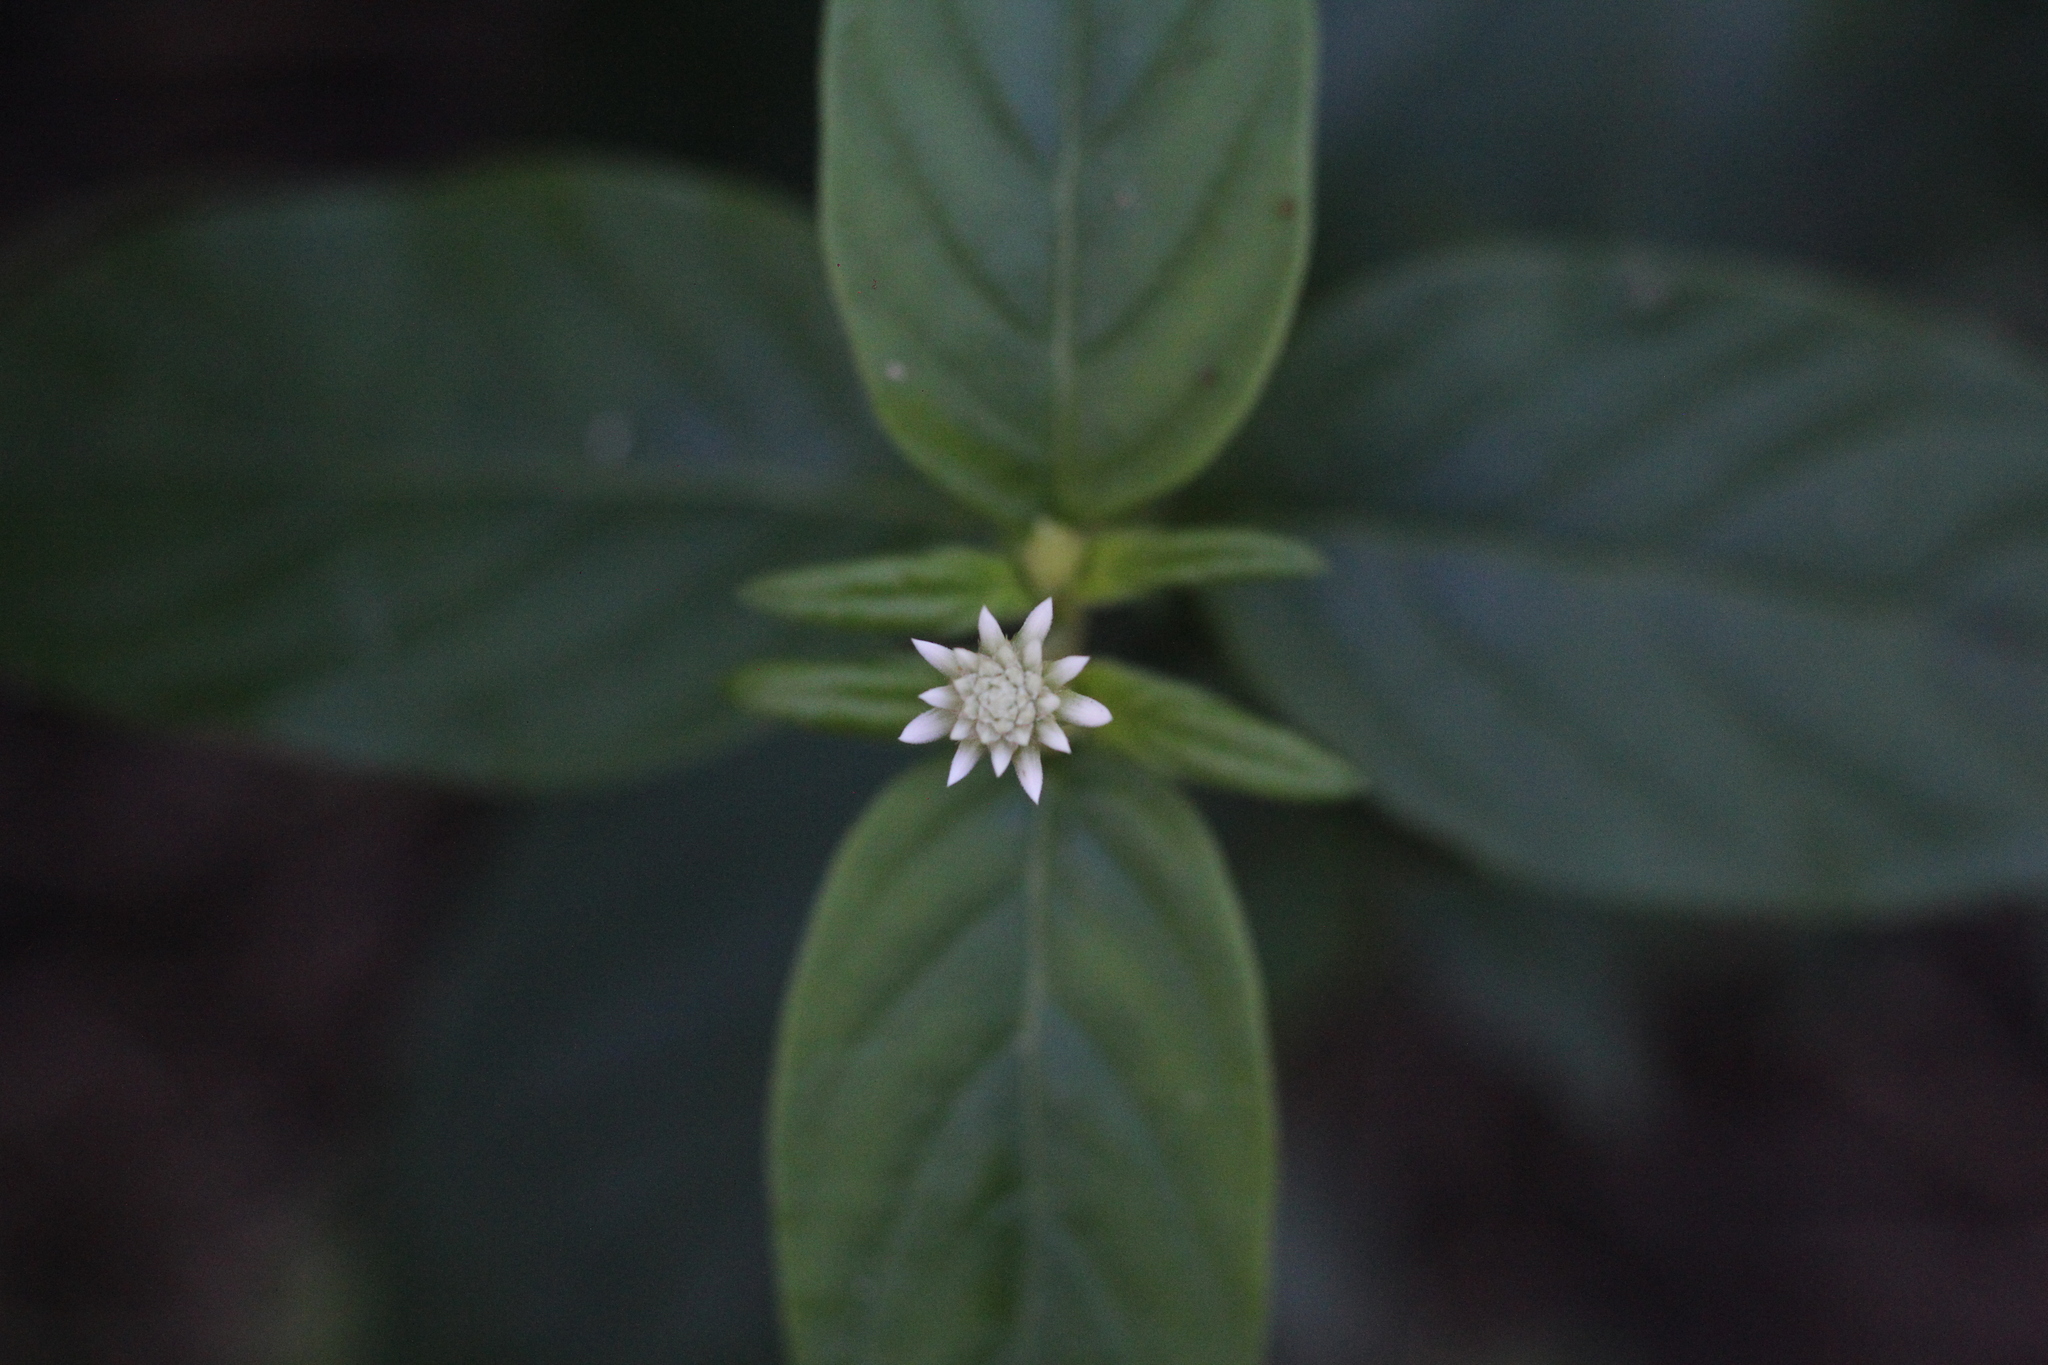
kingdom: Plantae
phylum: Tracheophyta
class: Magnoliopsida
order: Caryophyllales
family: Amaranthaceae
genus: Gomphrena
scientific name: Gomphrena elegans
